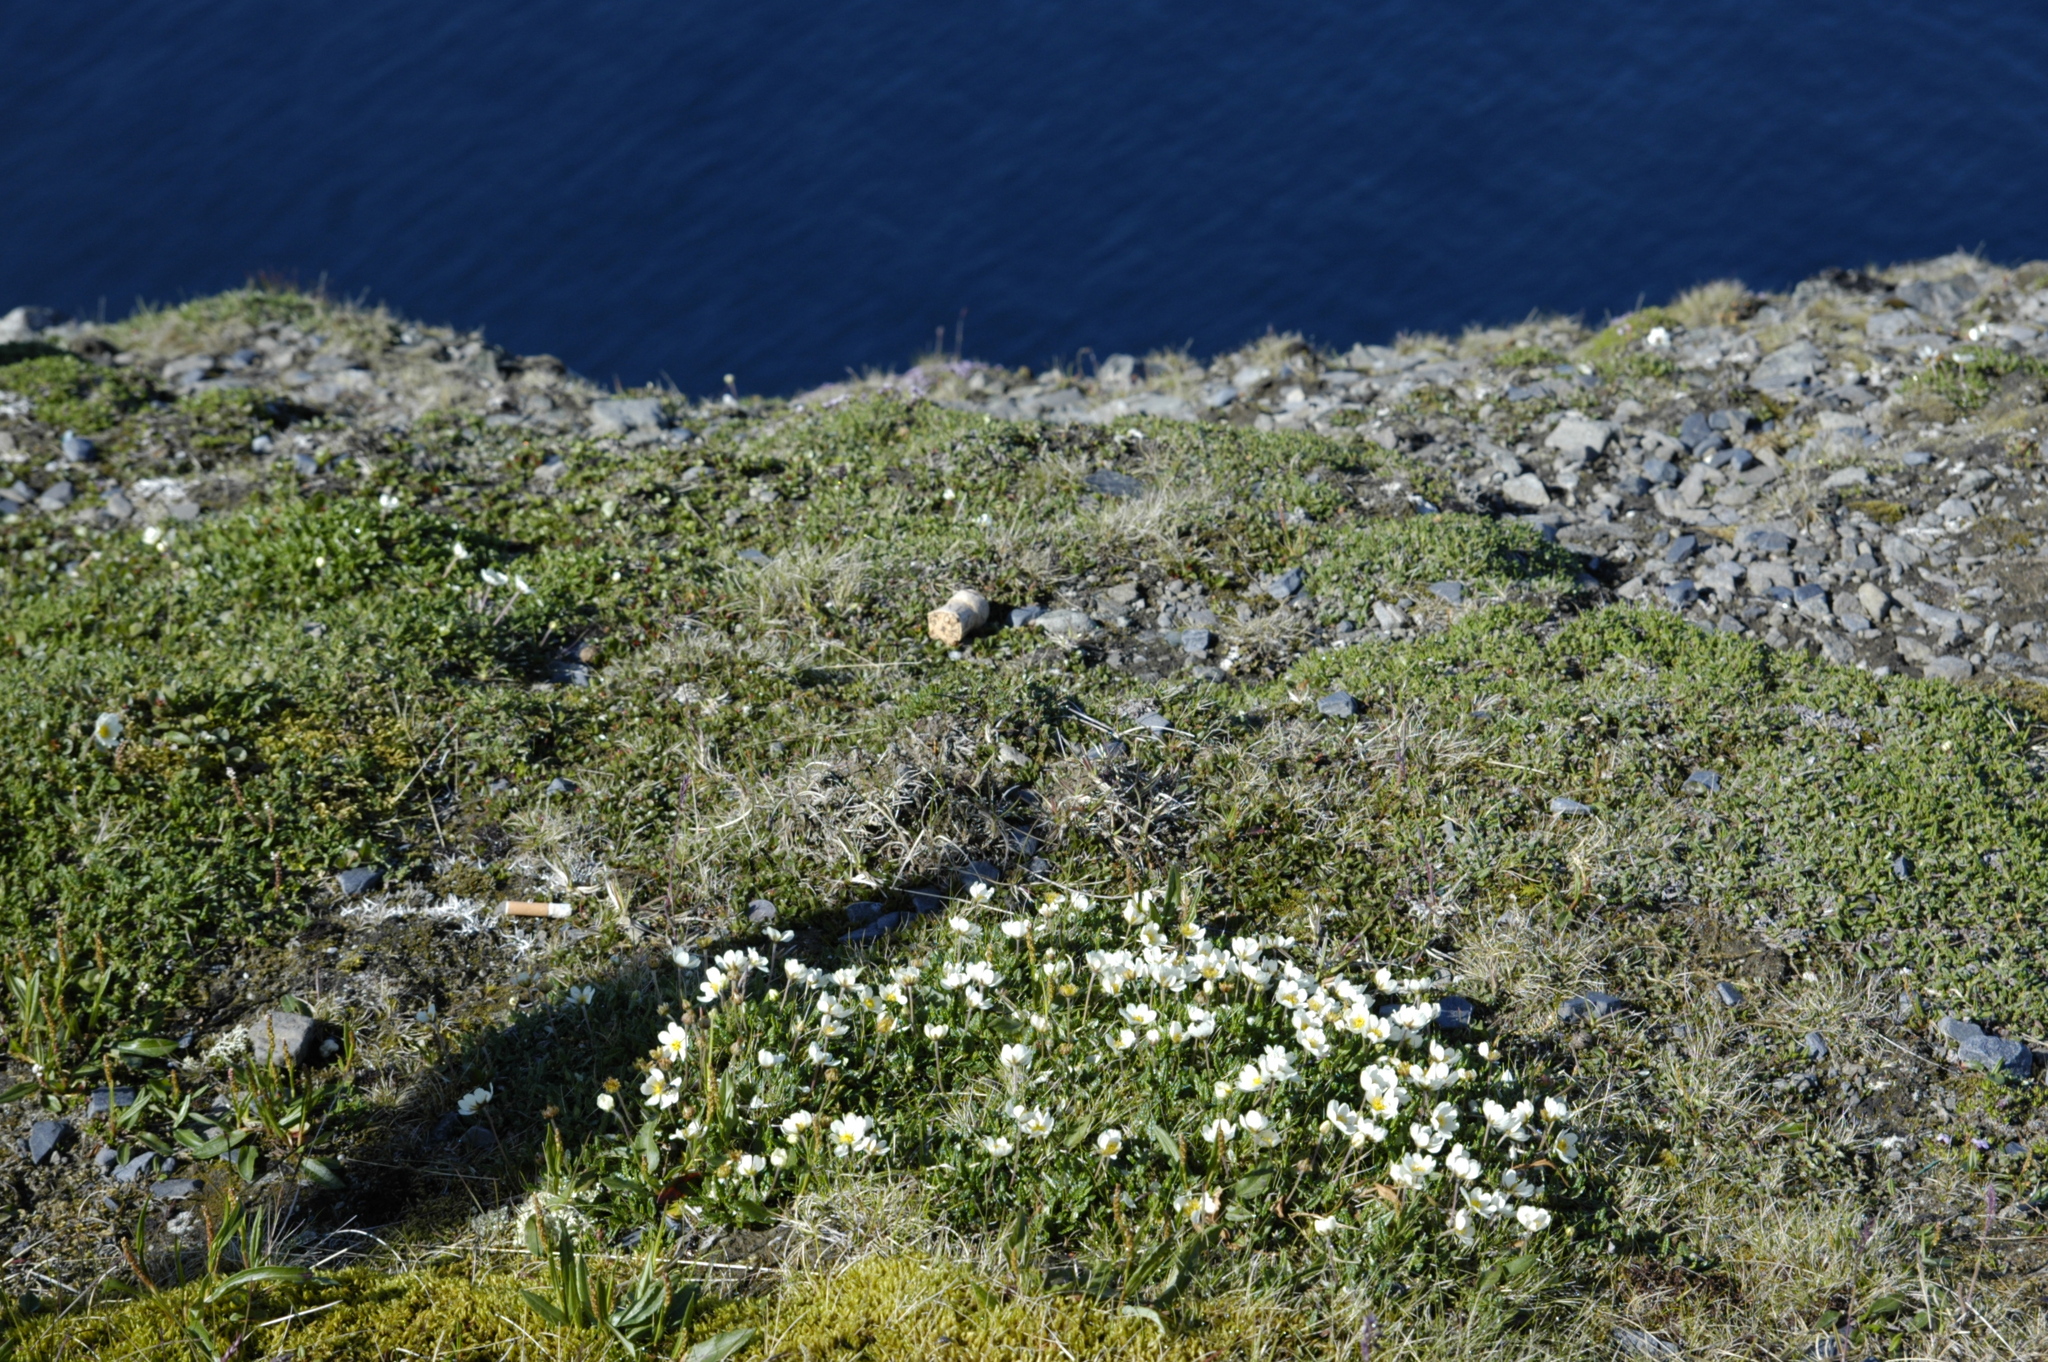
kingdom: Plantae
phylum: Tracheophyta
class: Magnoliopsida
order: Rosales
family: Rosaceae
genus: Dryas
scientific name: Dryas octopetala
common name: Eight-petal mountain-avens
